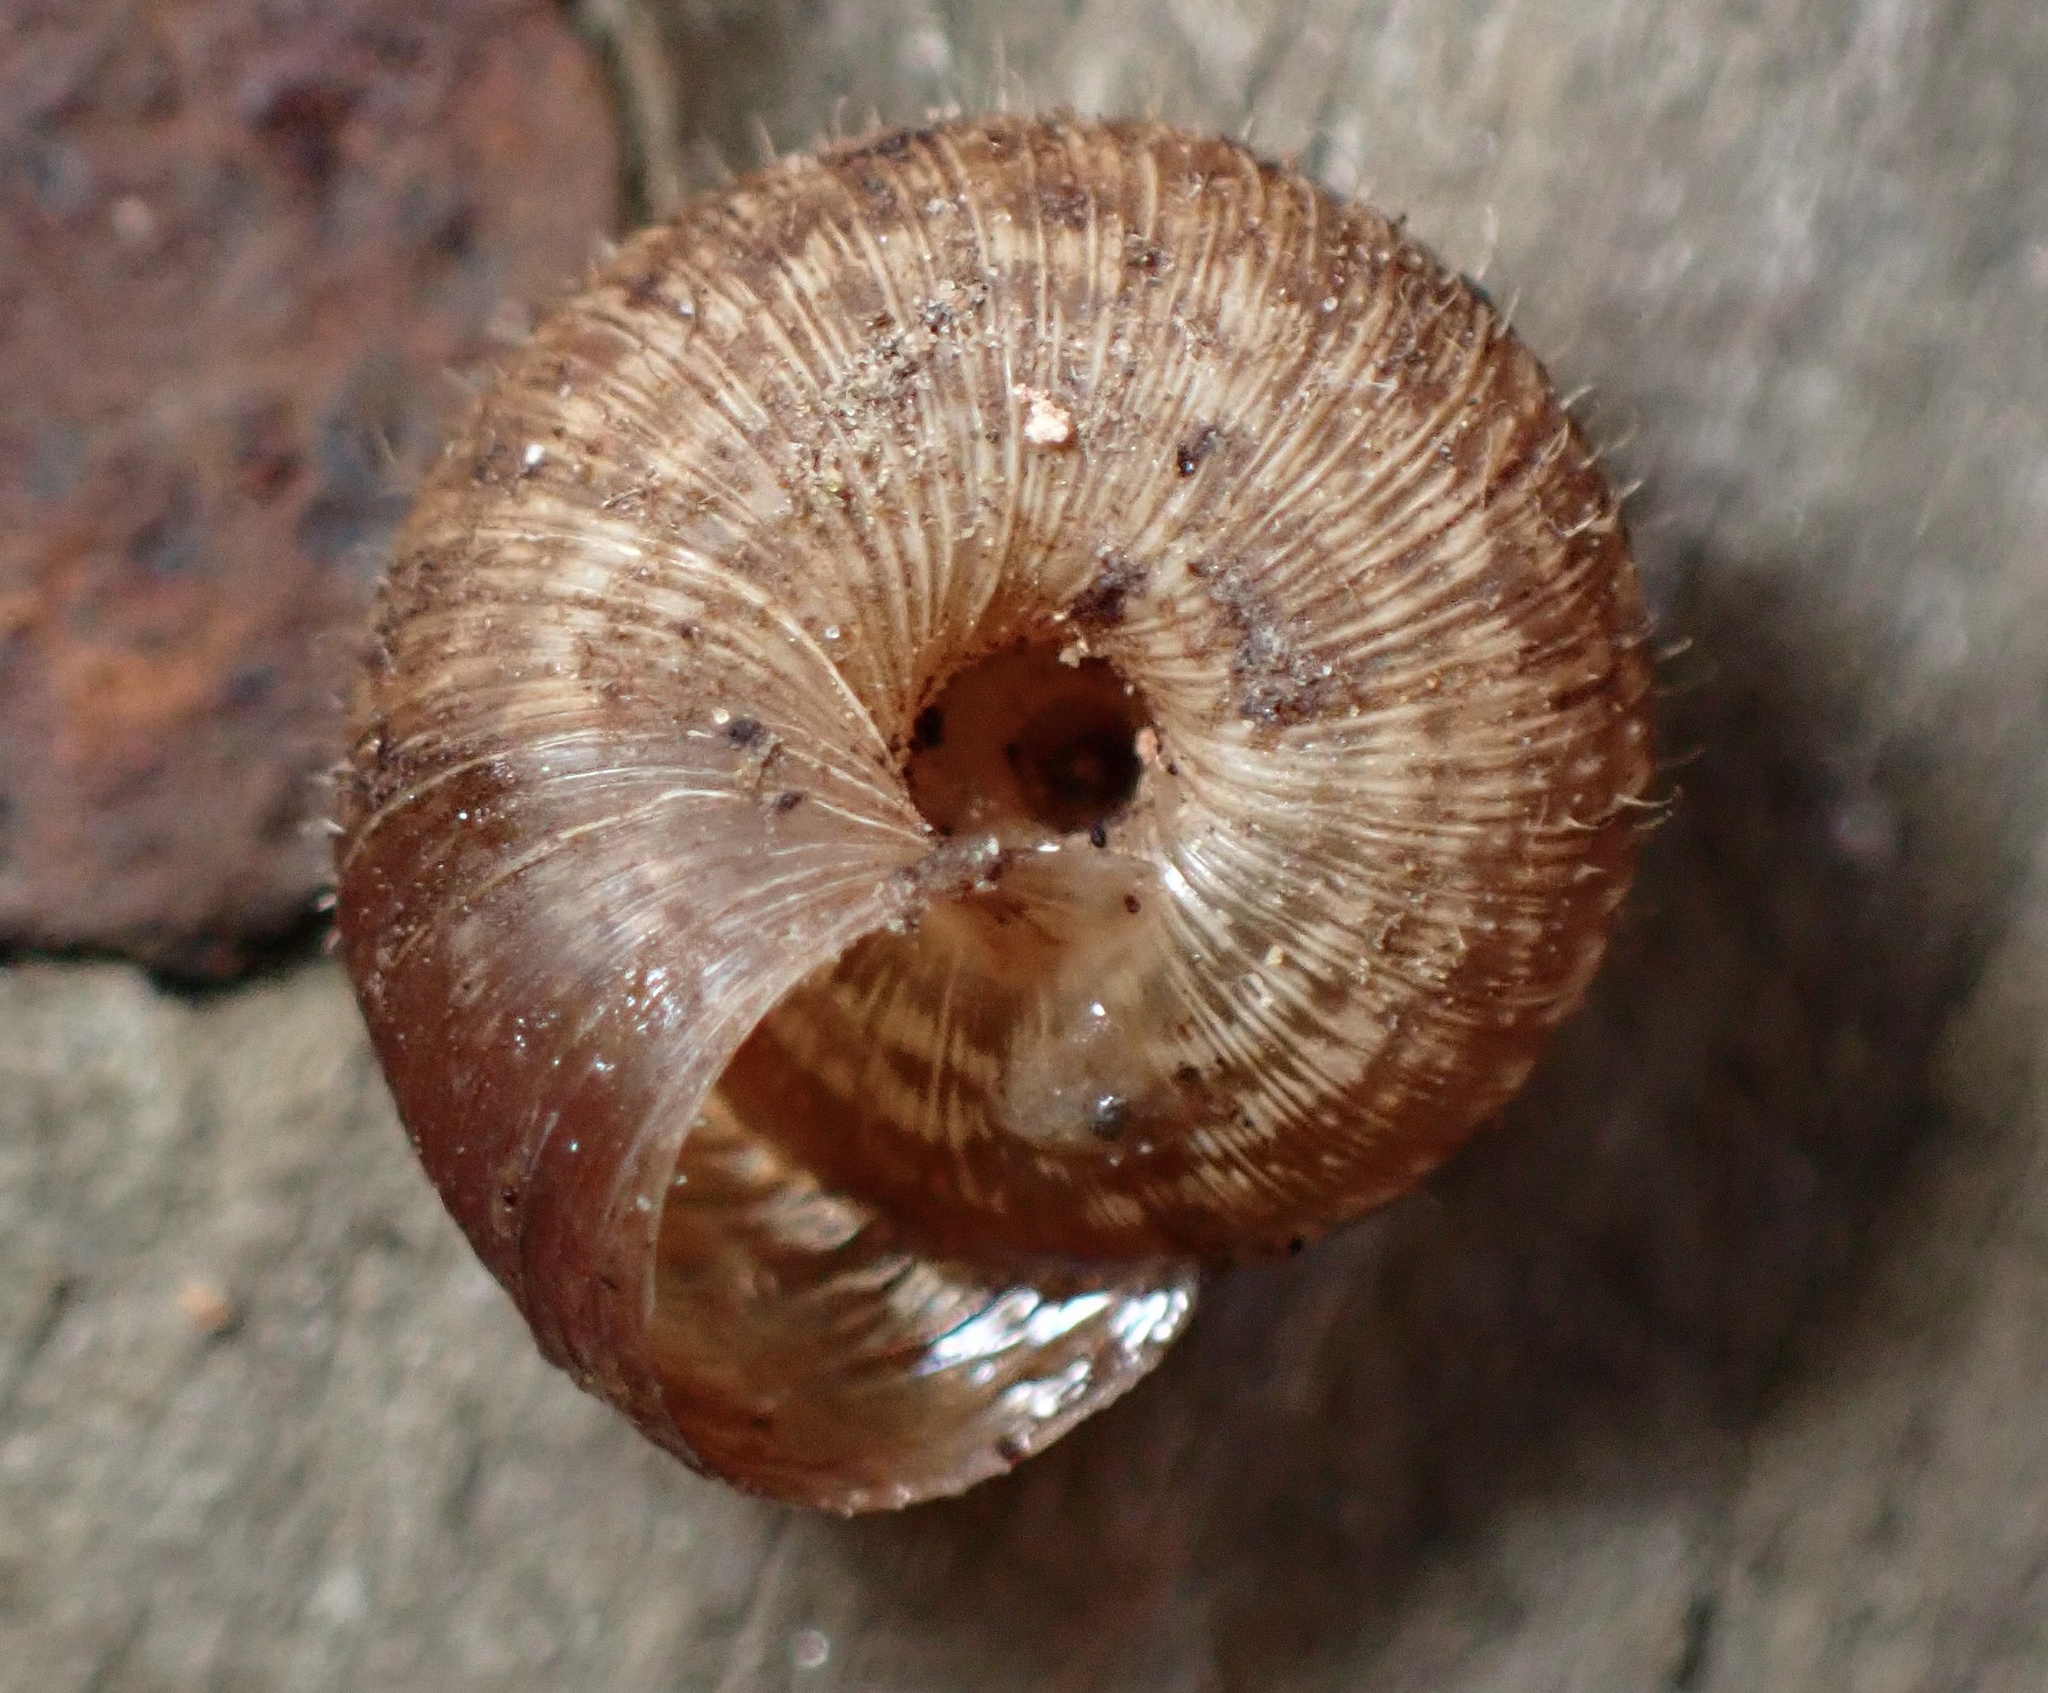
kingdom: Animalia
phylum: Mollusca
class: Gastropoda
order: Stylommatophora
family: Geomitridae
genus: Xerotricha
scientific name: Xerotricha conspurcata
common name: Snail
